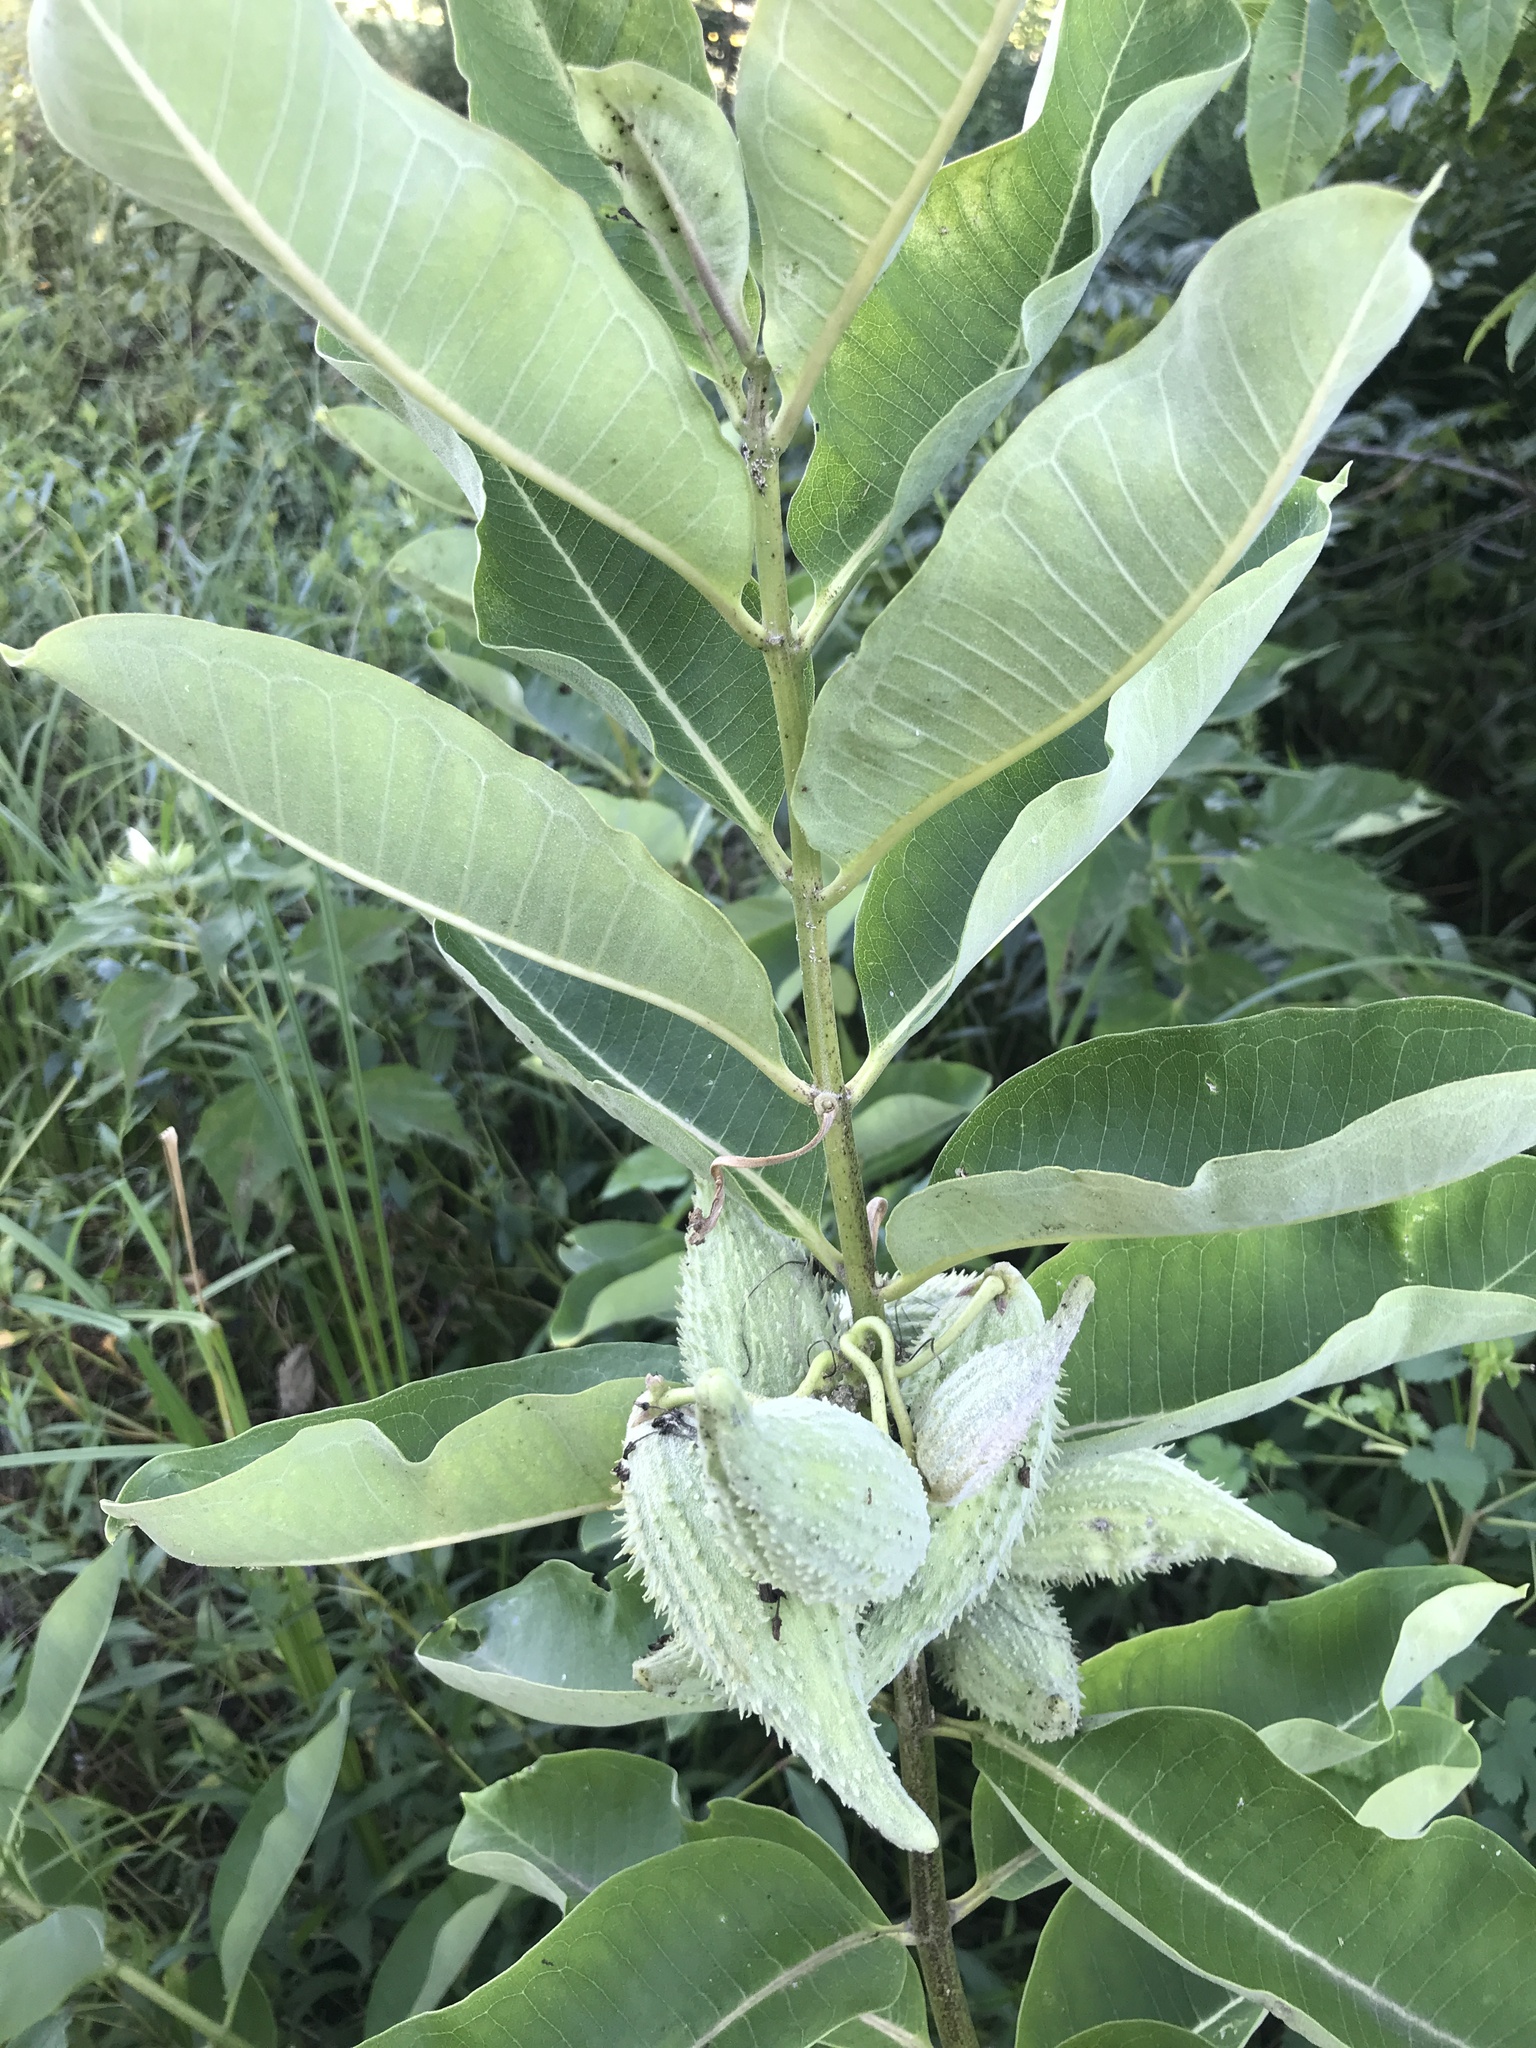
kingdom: Plantae
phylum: Tracheophyta
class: Magnoliopsida
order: Gentianales
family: Apocynaceae
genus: Asclepias
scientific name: Asclepias syriaca
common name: Common milkweed
